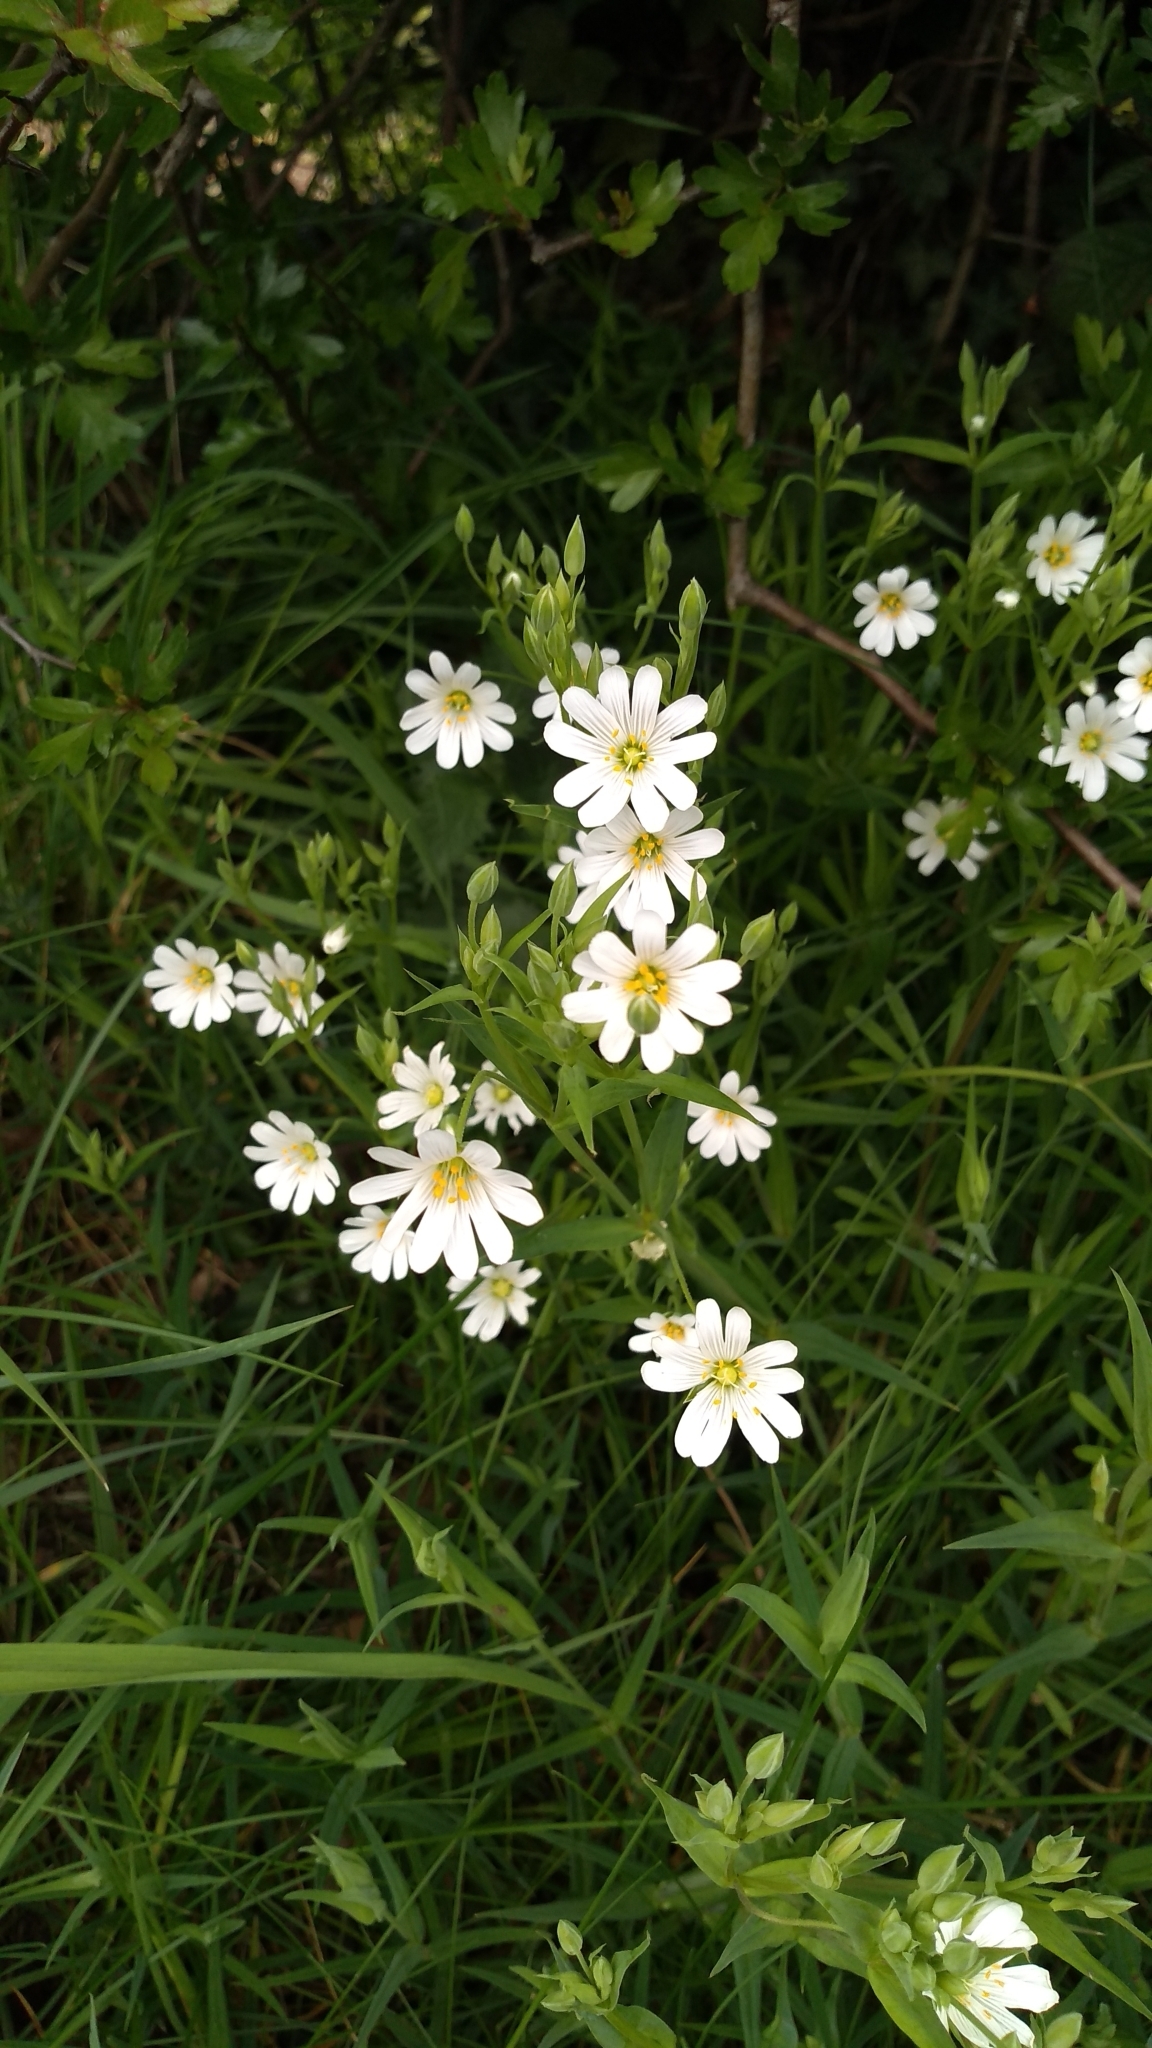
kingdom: Plantae
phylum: Tracheophyta
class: Magnoliopsida
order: Caryophyllales
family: Caryophyllaceae
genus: Rabelera
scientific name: Rabelera holostea
